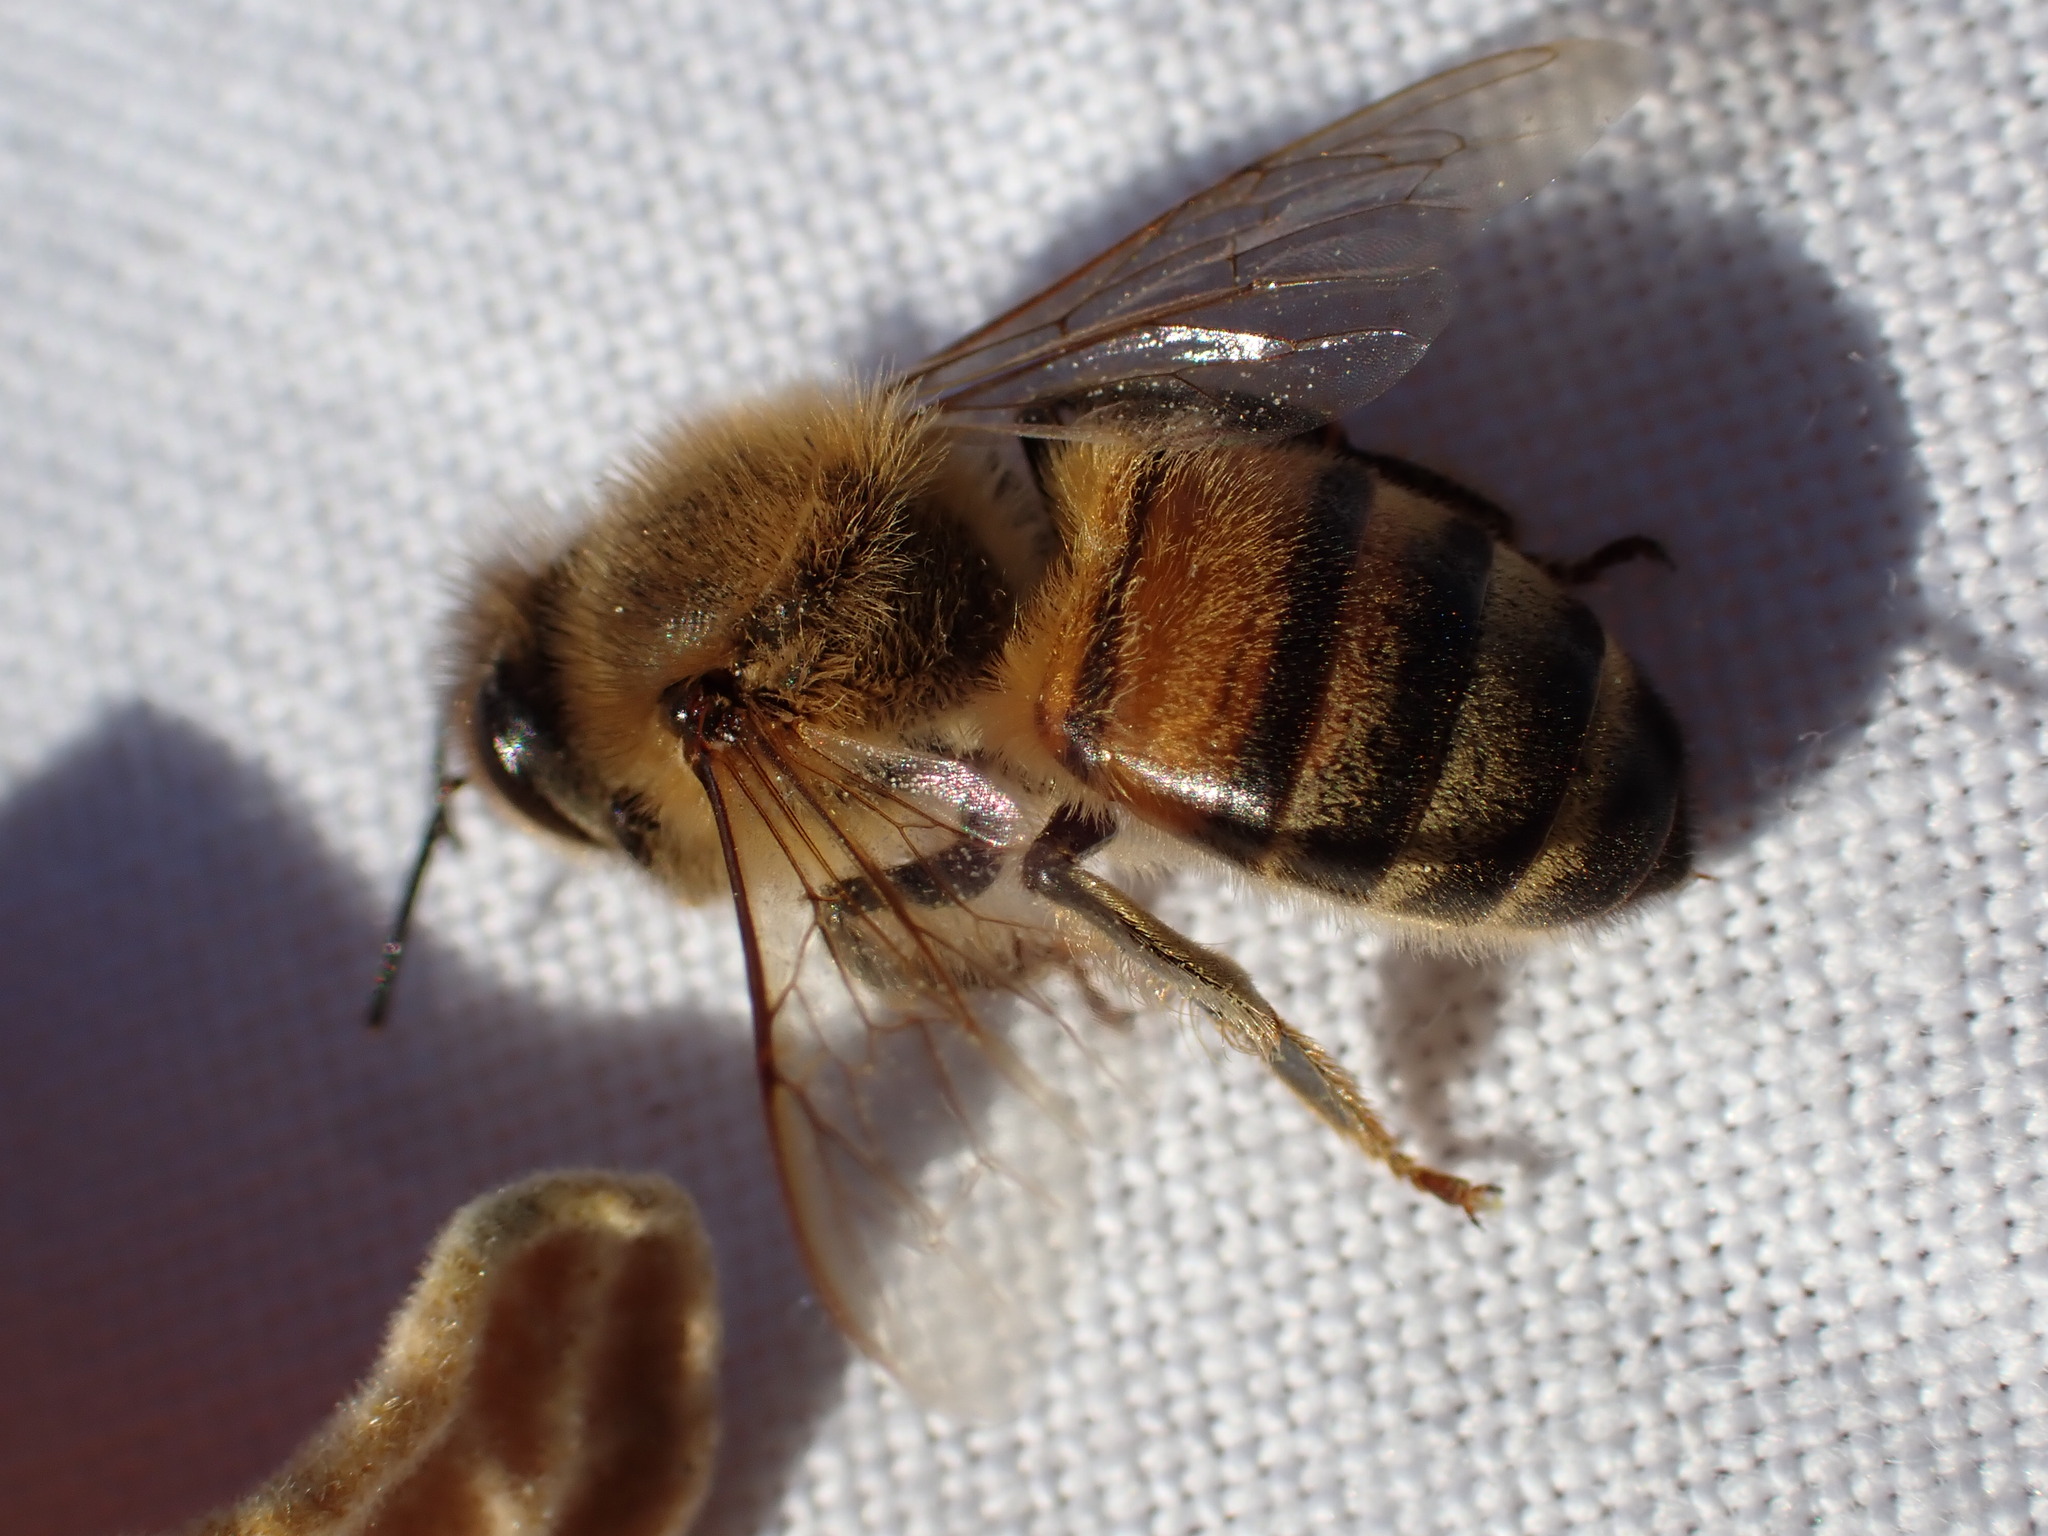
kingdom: Animalia
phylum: Arthropoda
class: Insecta
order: Hymenoptera
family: Apidae
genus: Apis
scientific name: Apis mellifera
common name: Honey bee
